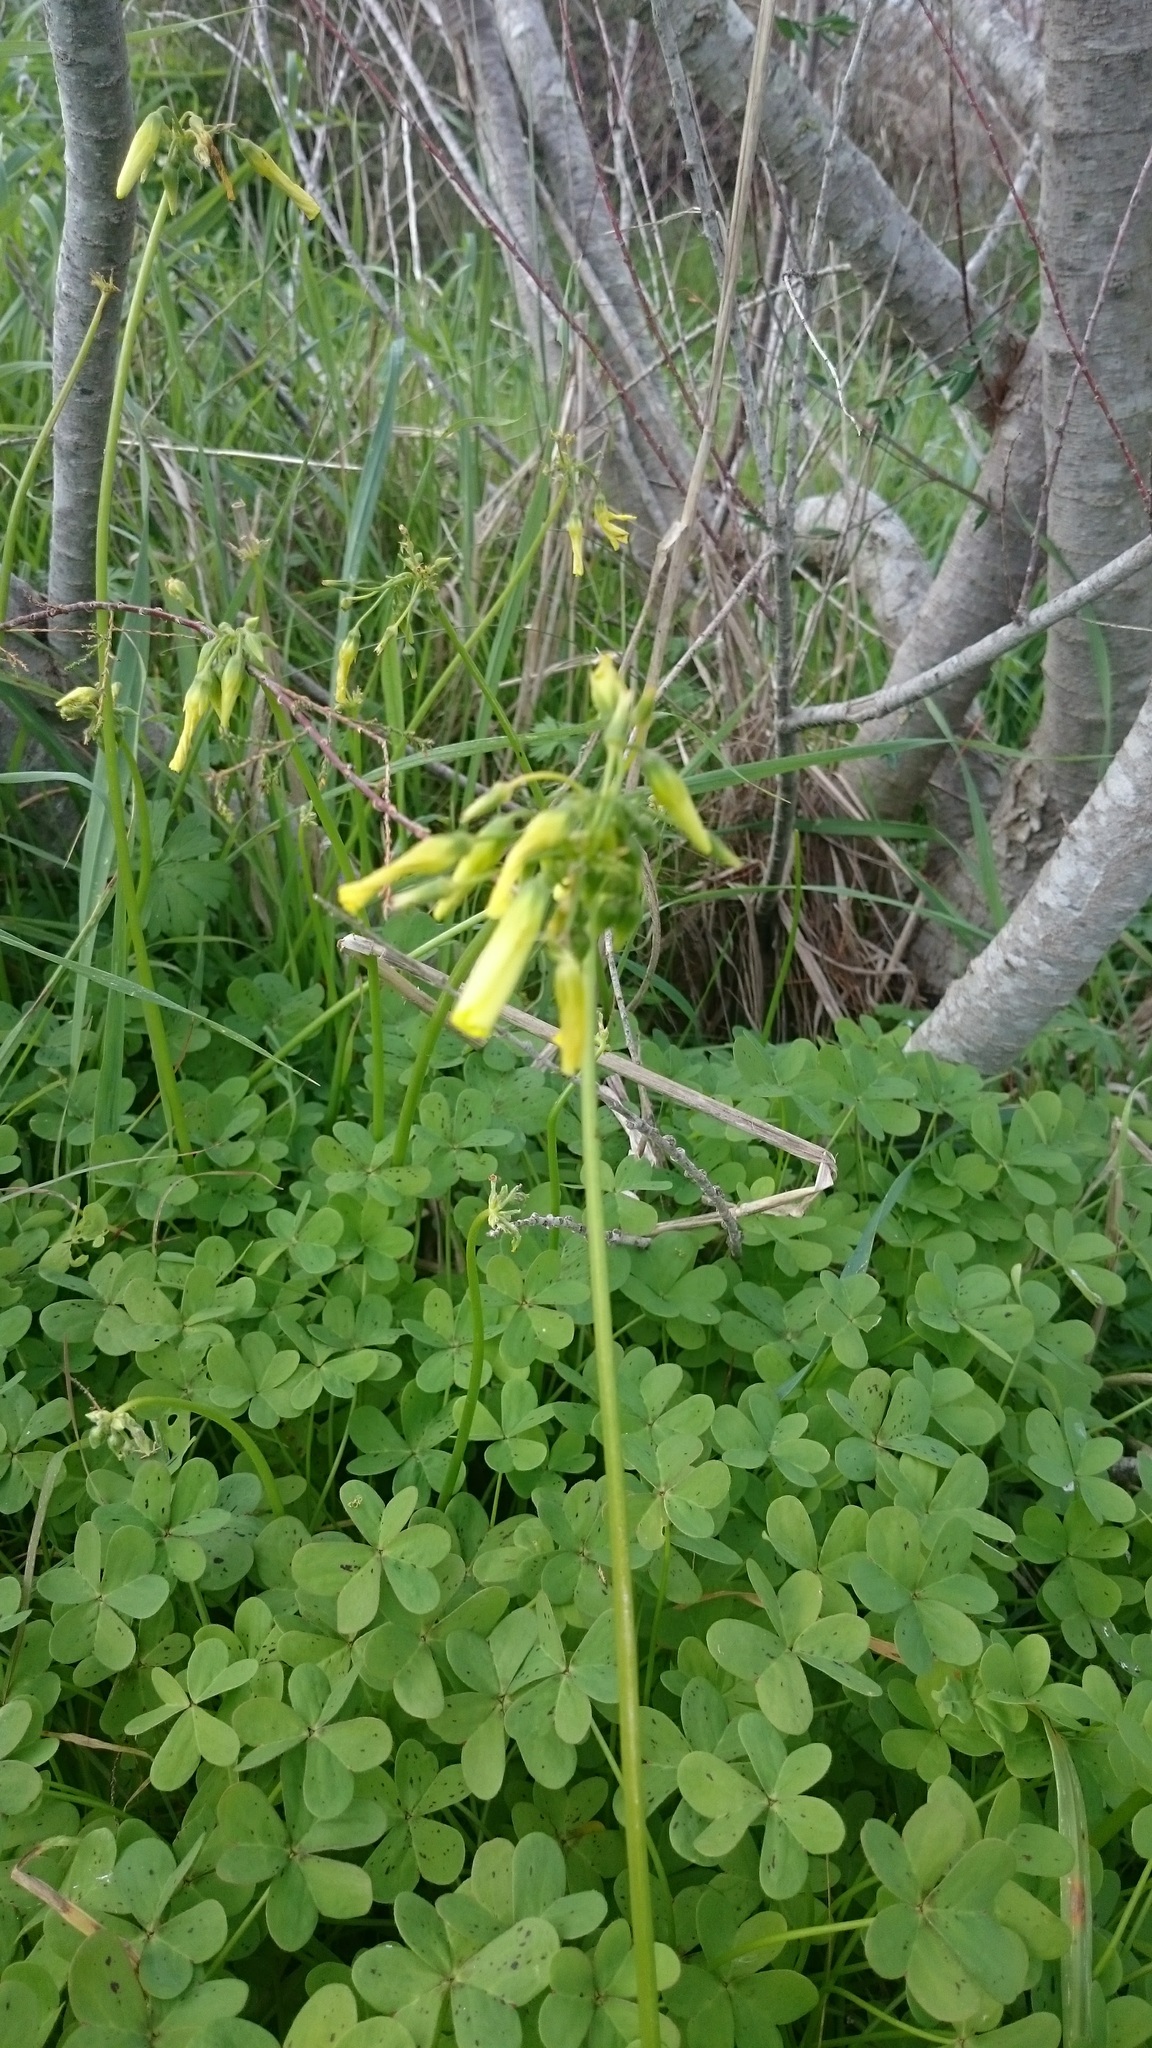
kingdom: Plantae
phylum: Tracheophyta
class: Magnoliopsida
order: Oxalidales
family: Oxalidaceae
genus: Oxalis
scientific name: Oxalis pes-caprae
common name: Bermuda-buttercup
